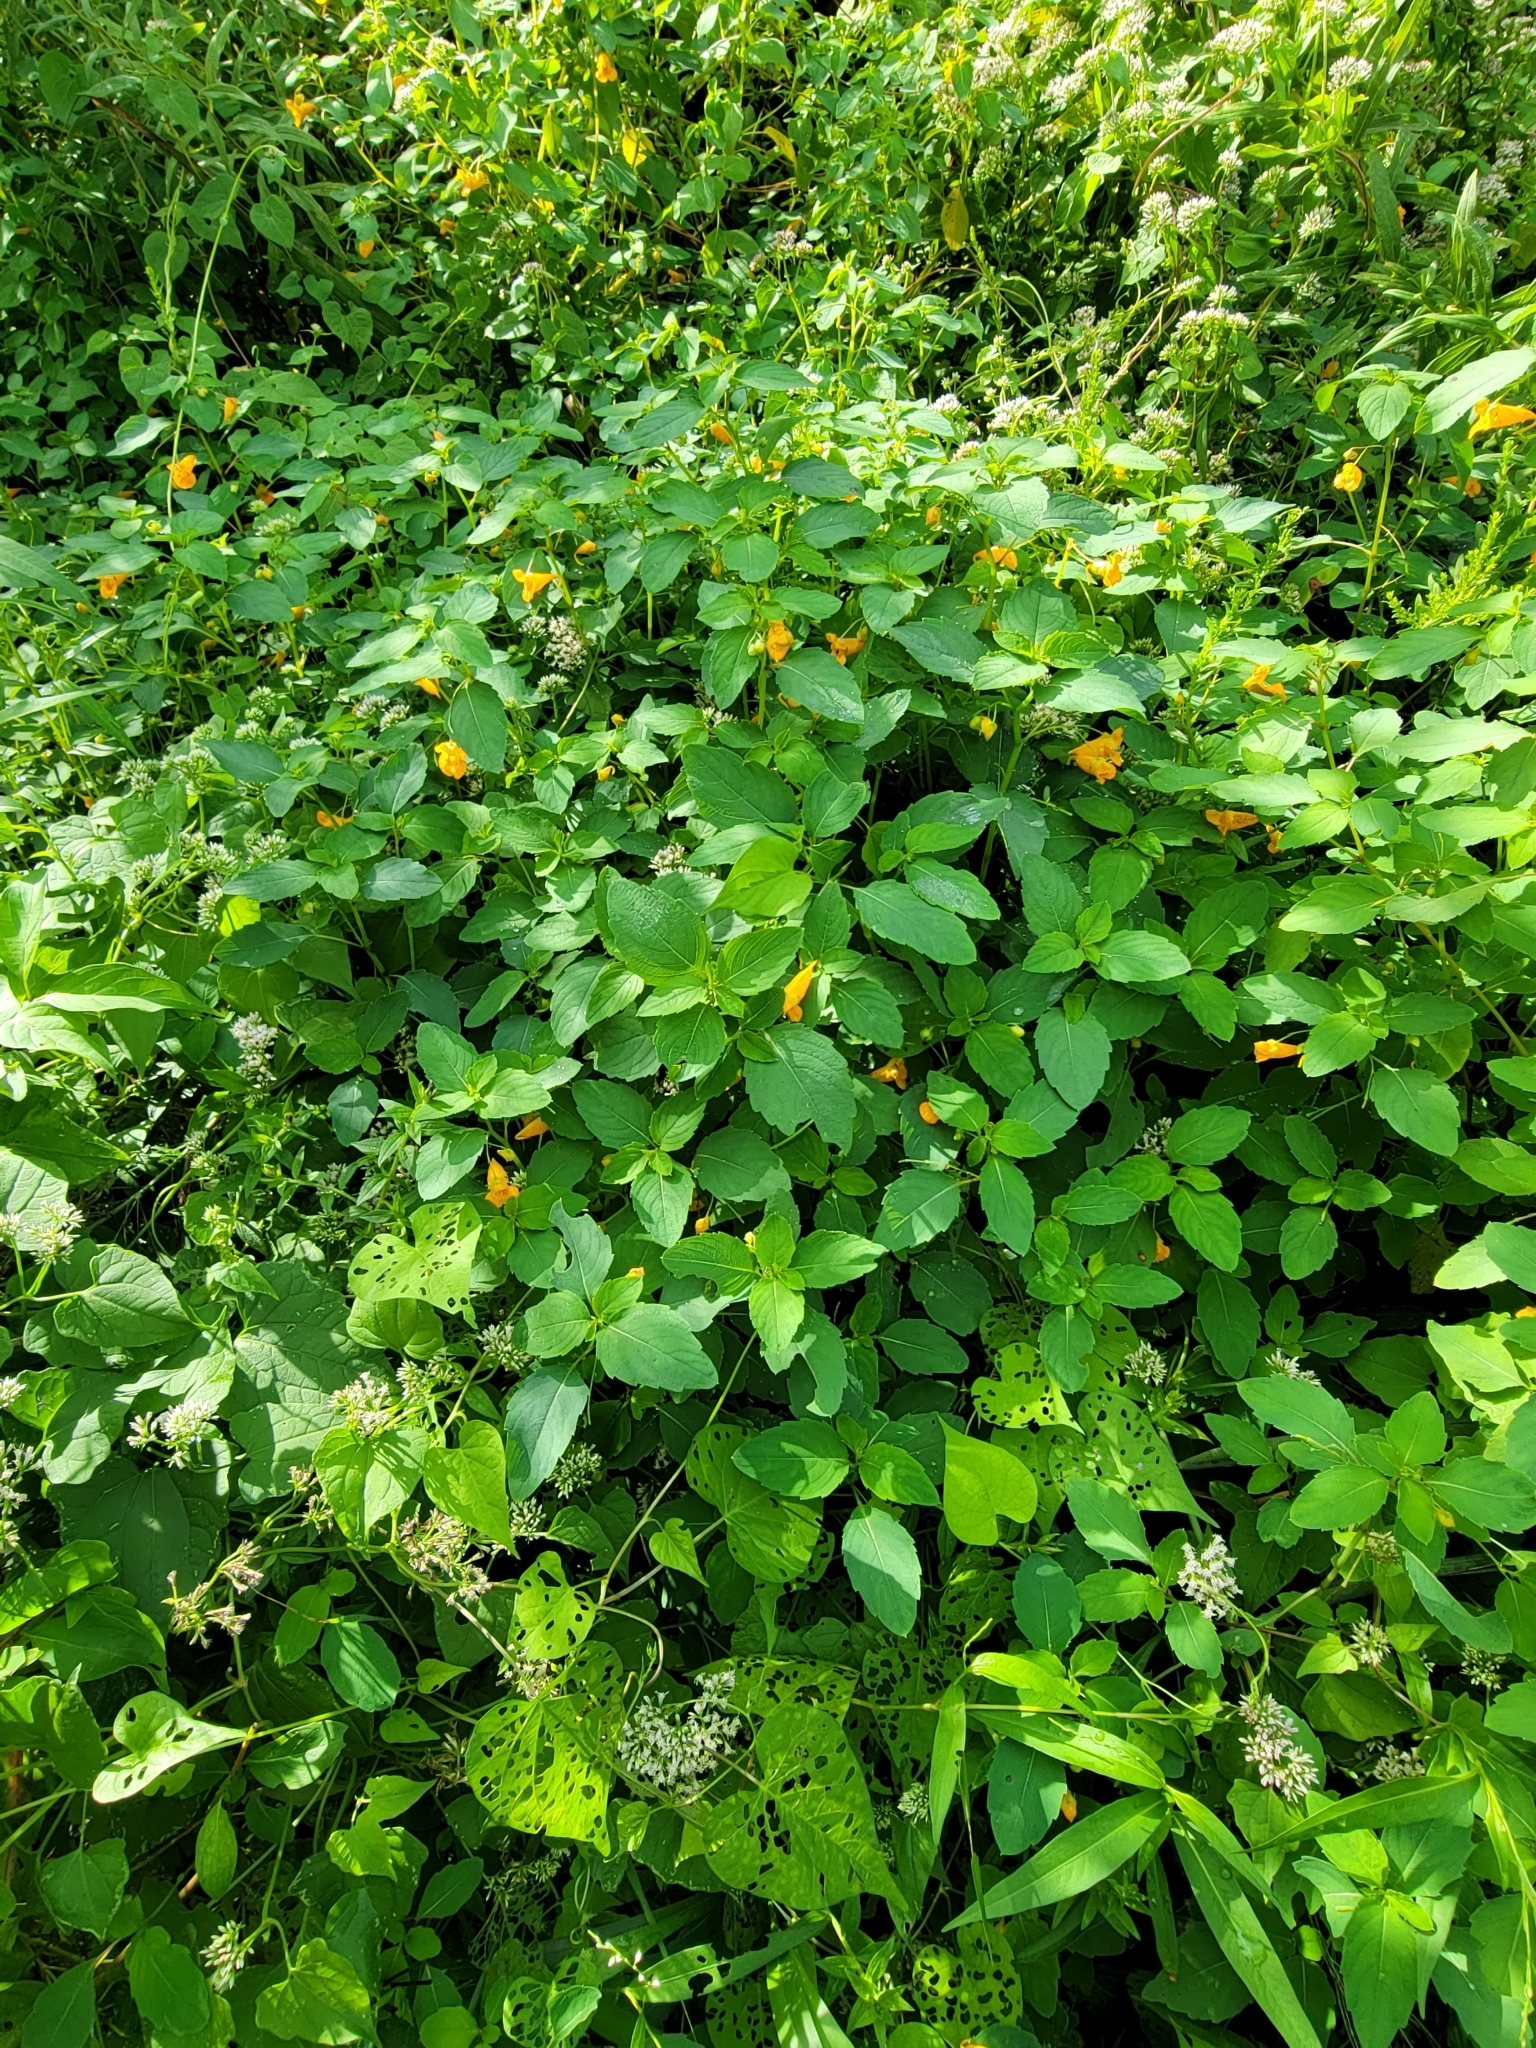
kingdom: Plantae
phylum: Tracheophyta
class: Magnoliopsida
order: Ericales
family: Balsaminaceae
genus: Impatiens
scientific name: Impatiens capensis
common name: Orange balsam
